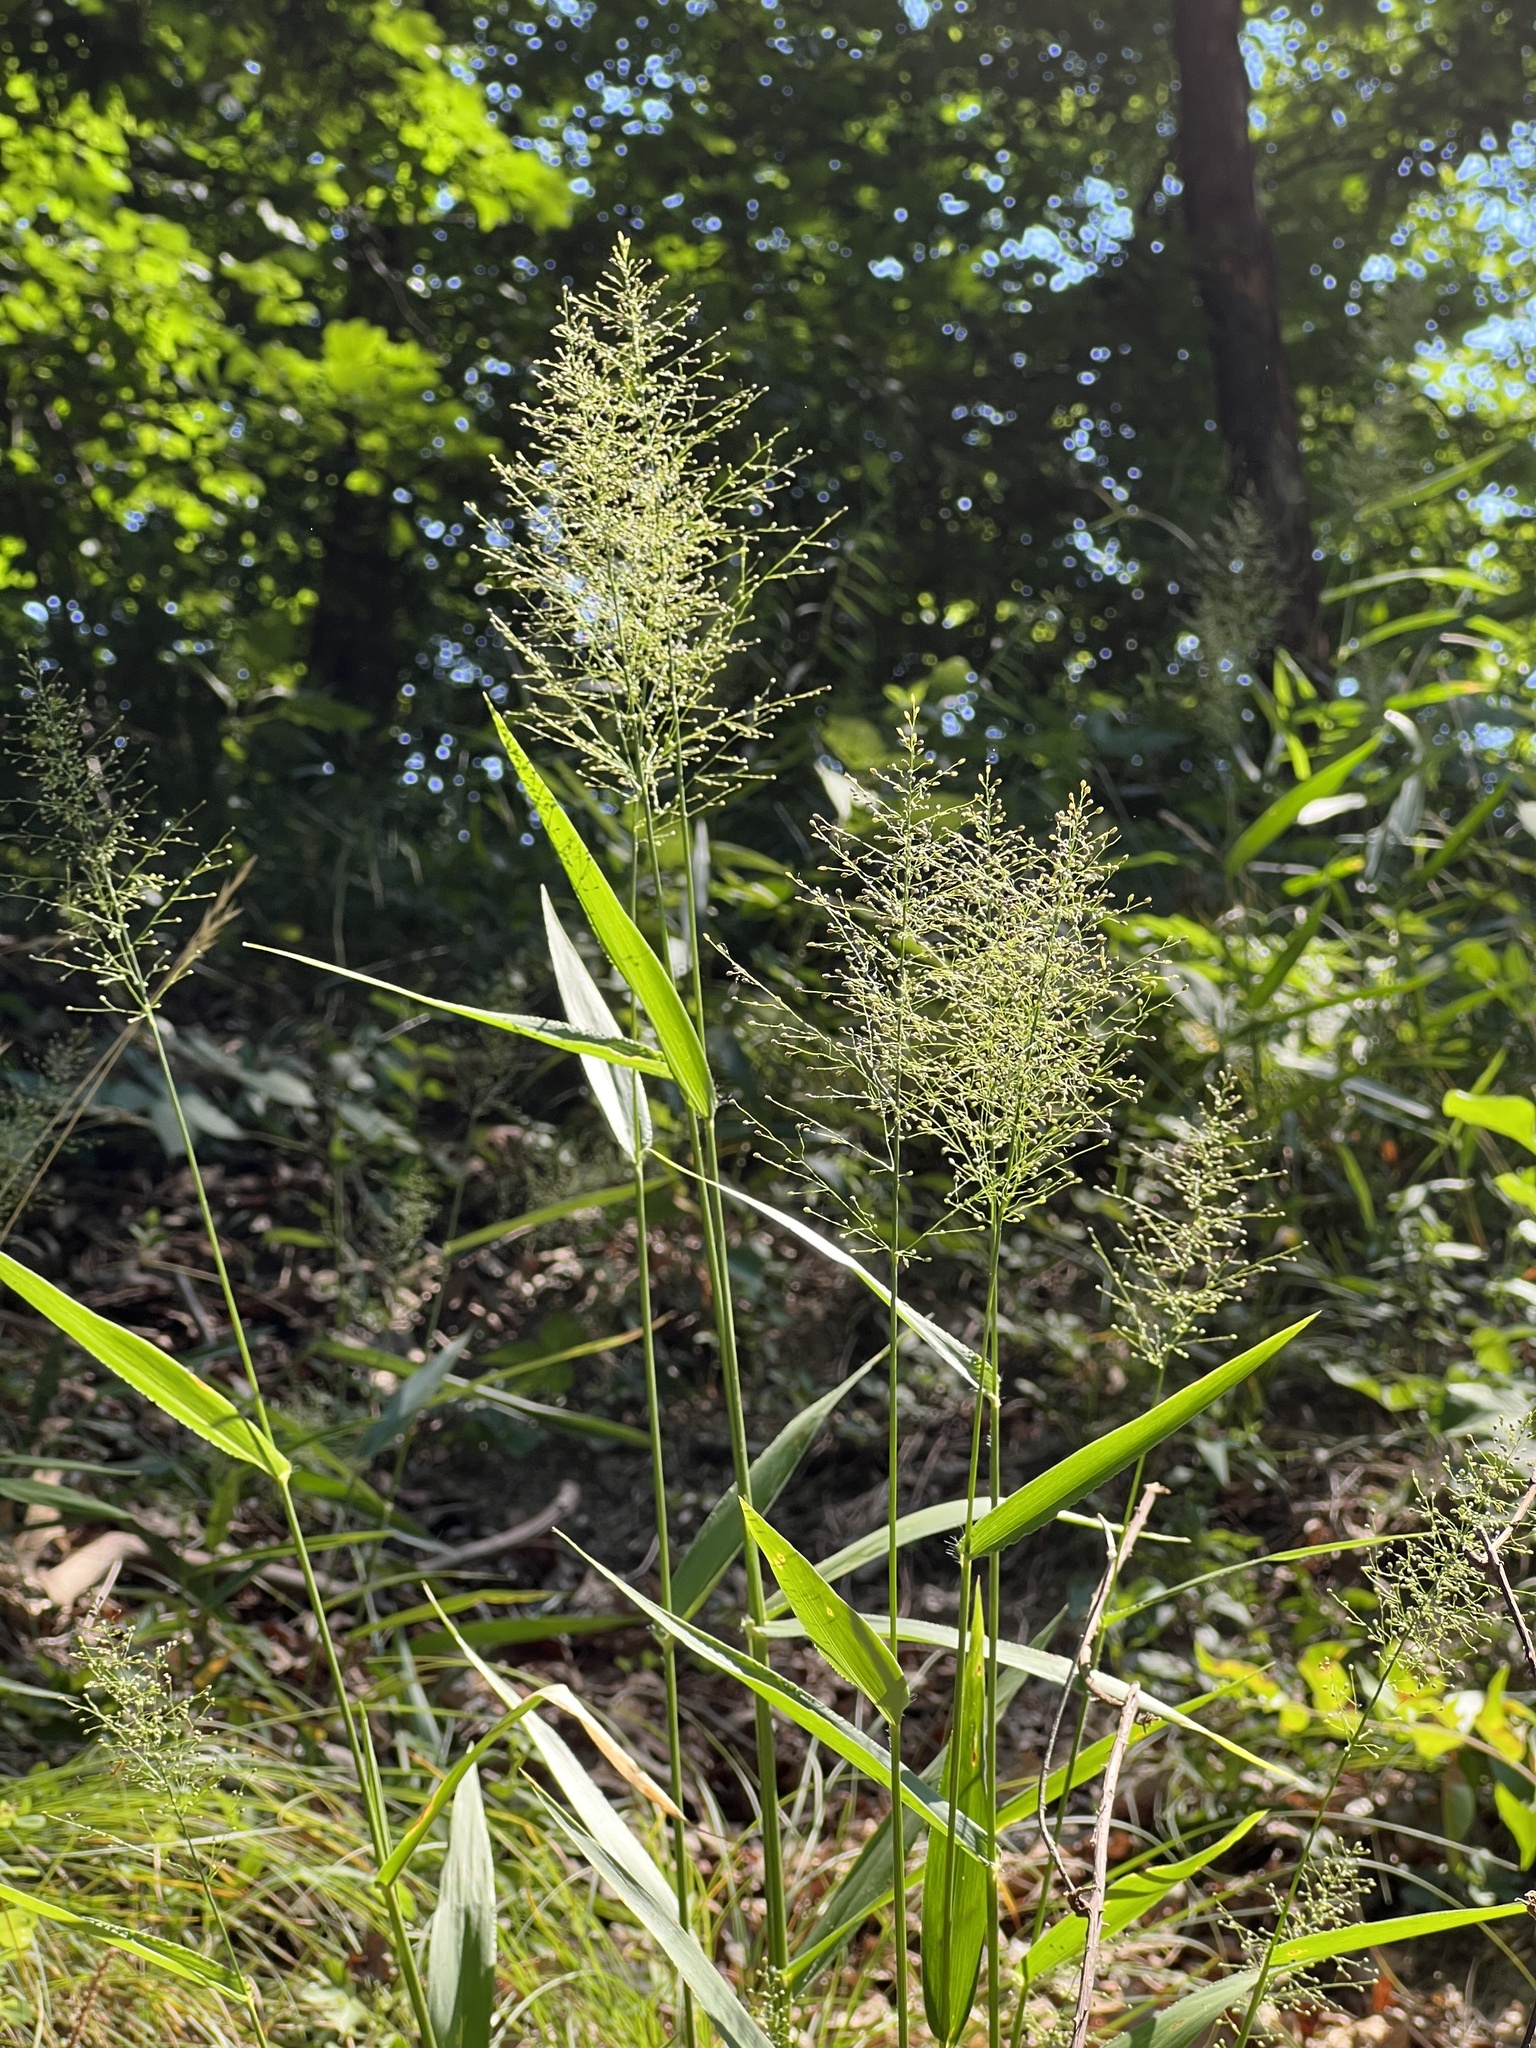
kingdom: Plantae
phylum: Tracheophyta
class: Liliopsida
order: Poales
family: Poaceae
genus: Dichanthelium
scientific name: Dichanthelium polyanthes
